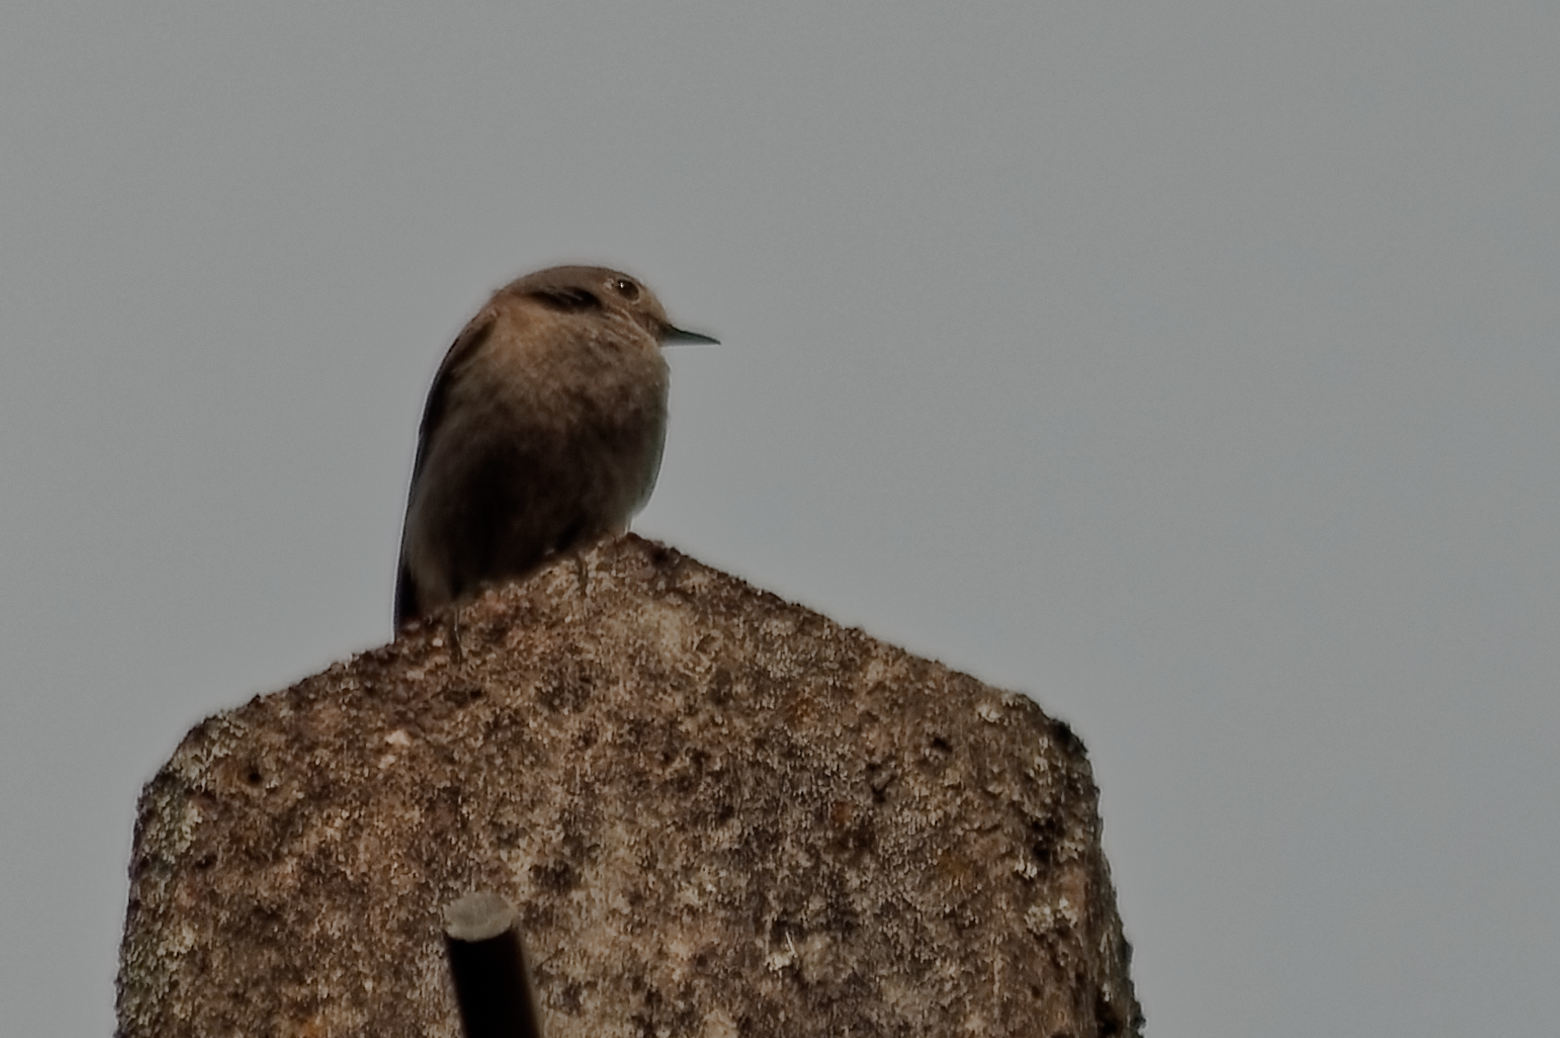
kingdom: Animalia
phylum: Chordata
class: Aves
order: Passeriformes
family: Muscicapidae
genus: Phoenicurus
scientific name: Phoenicurus ochruros
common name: Black redstart
